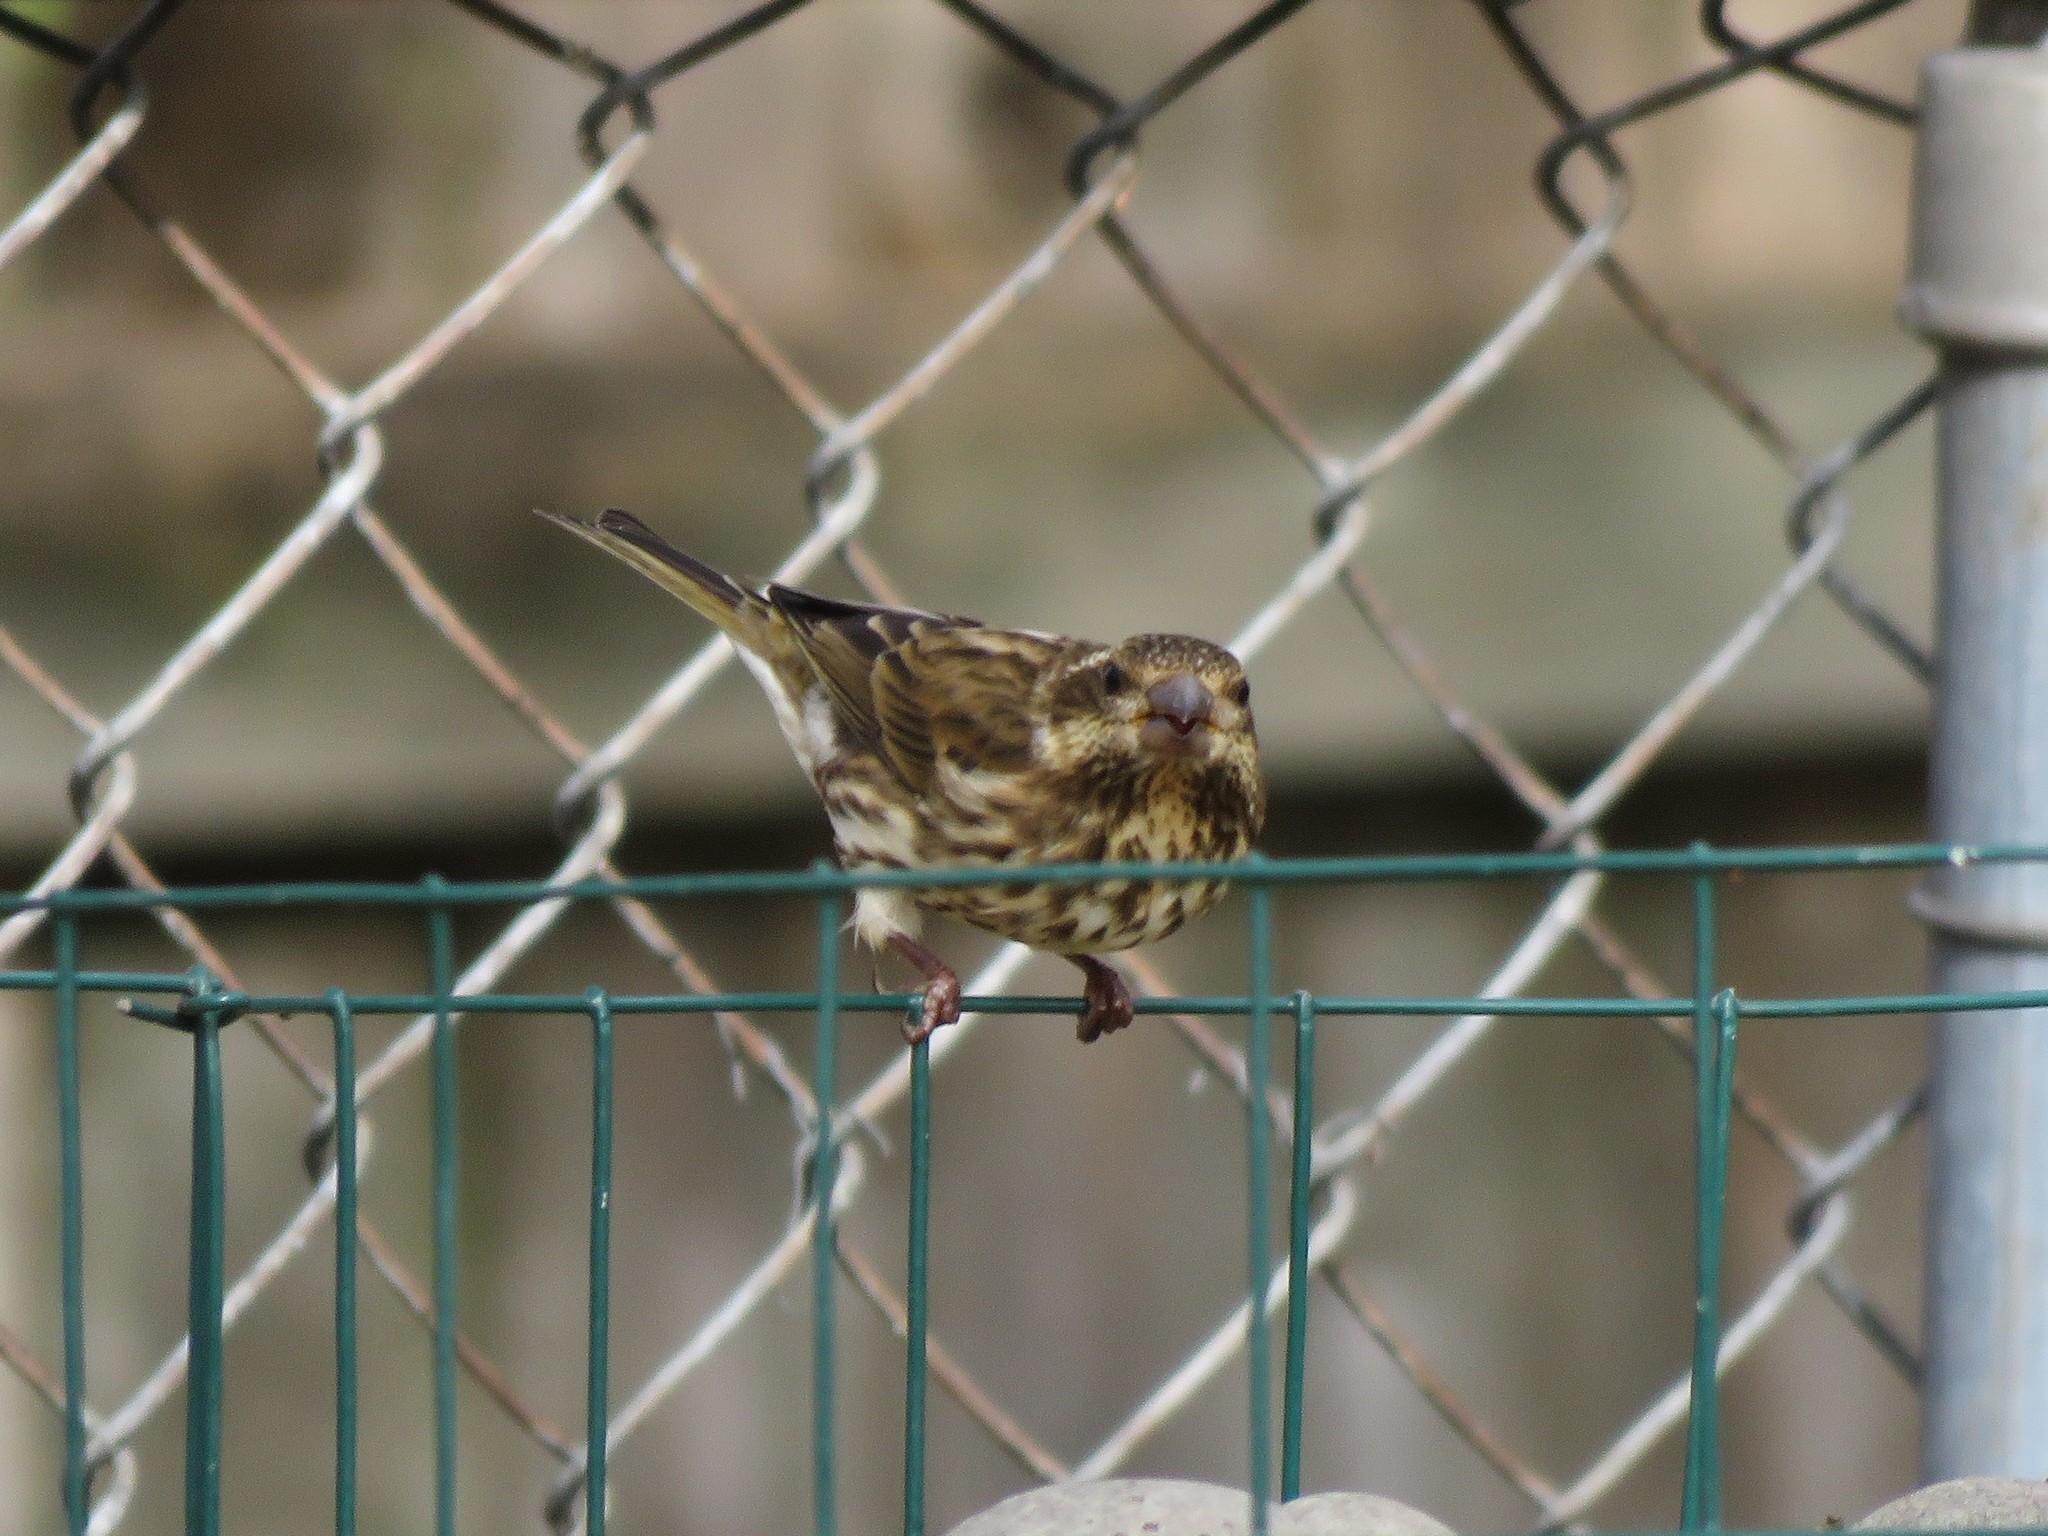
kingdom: Animalia
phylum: Chordata
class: Aves
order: Passeriformes
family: Fringillidae
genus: Haemorhous
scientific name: Haemorhous purpureus
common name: Purple finch
